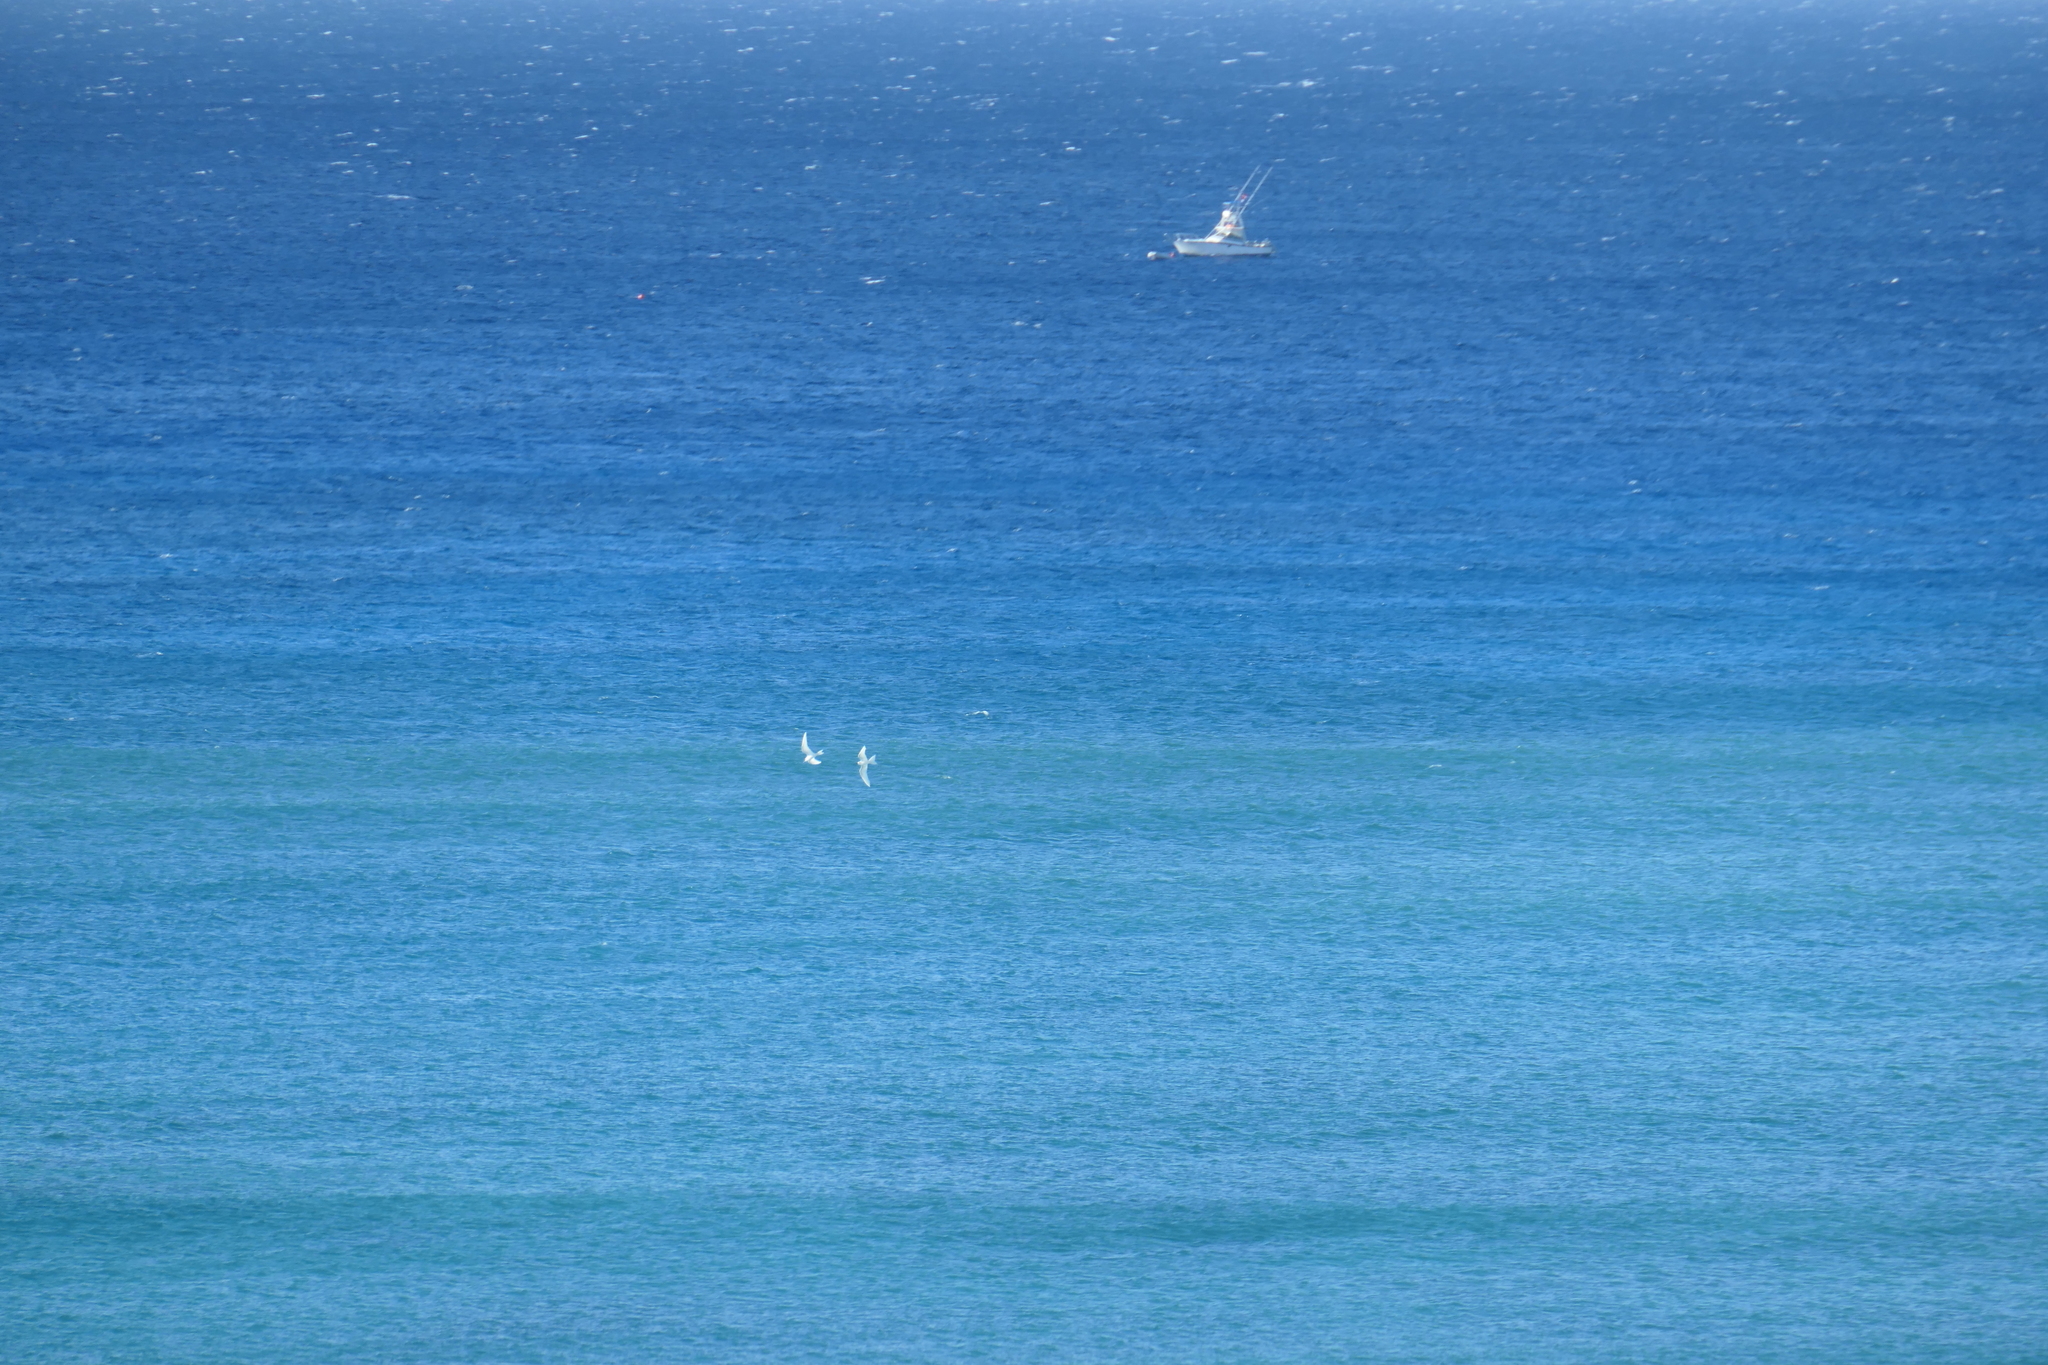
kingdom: Animalia
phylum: Chordata
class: Aves
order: Charadriiformes
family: Laridae
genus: Gygis
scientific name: Gygis alba
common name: White tern
